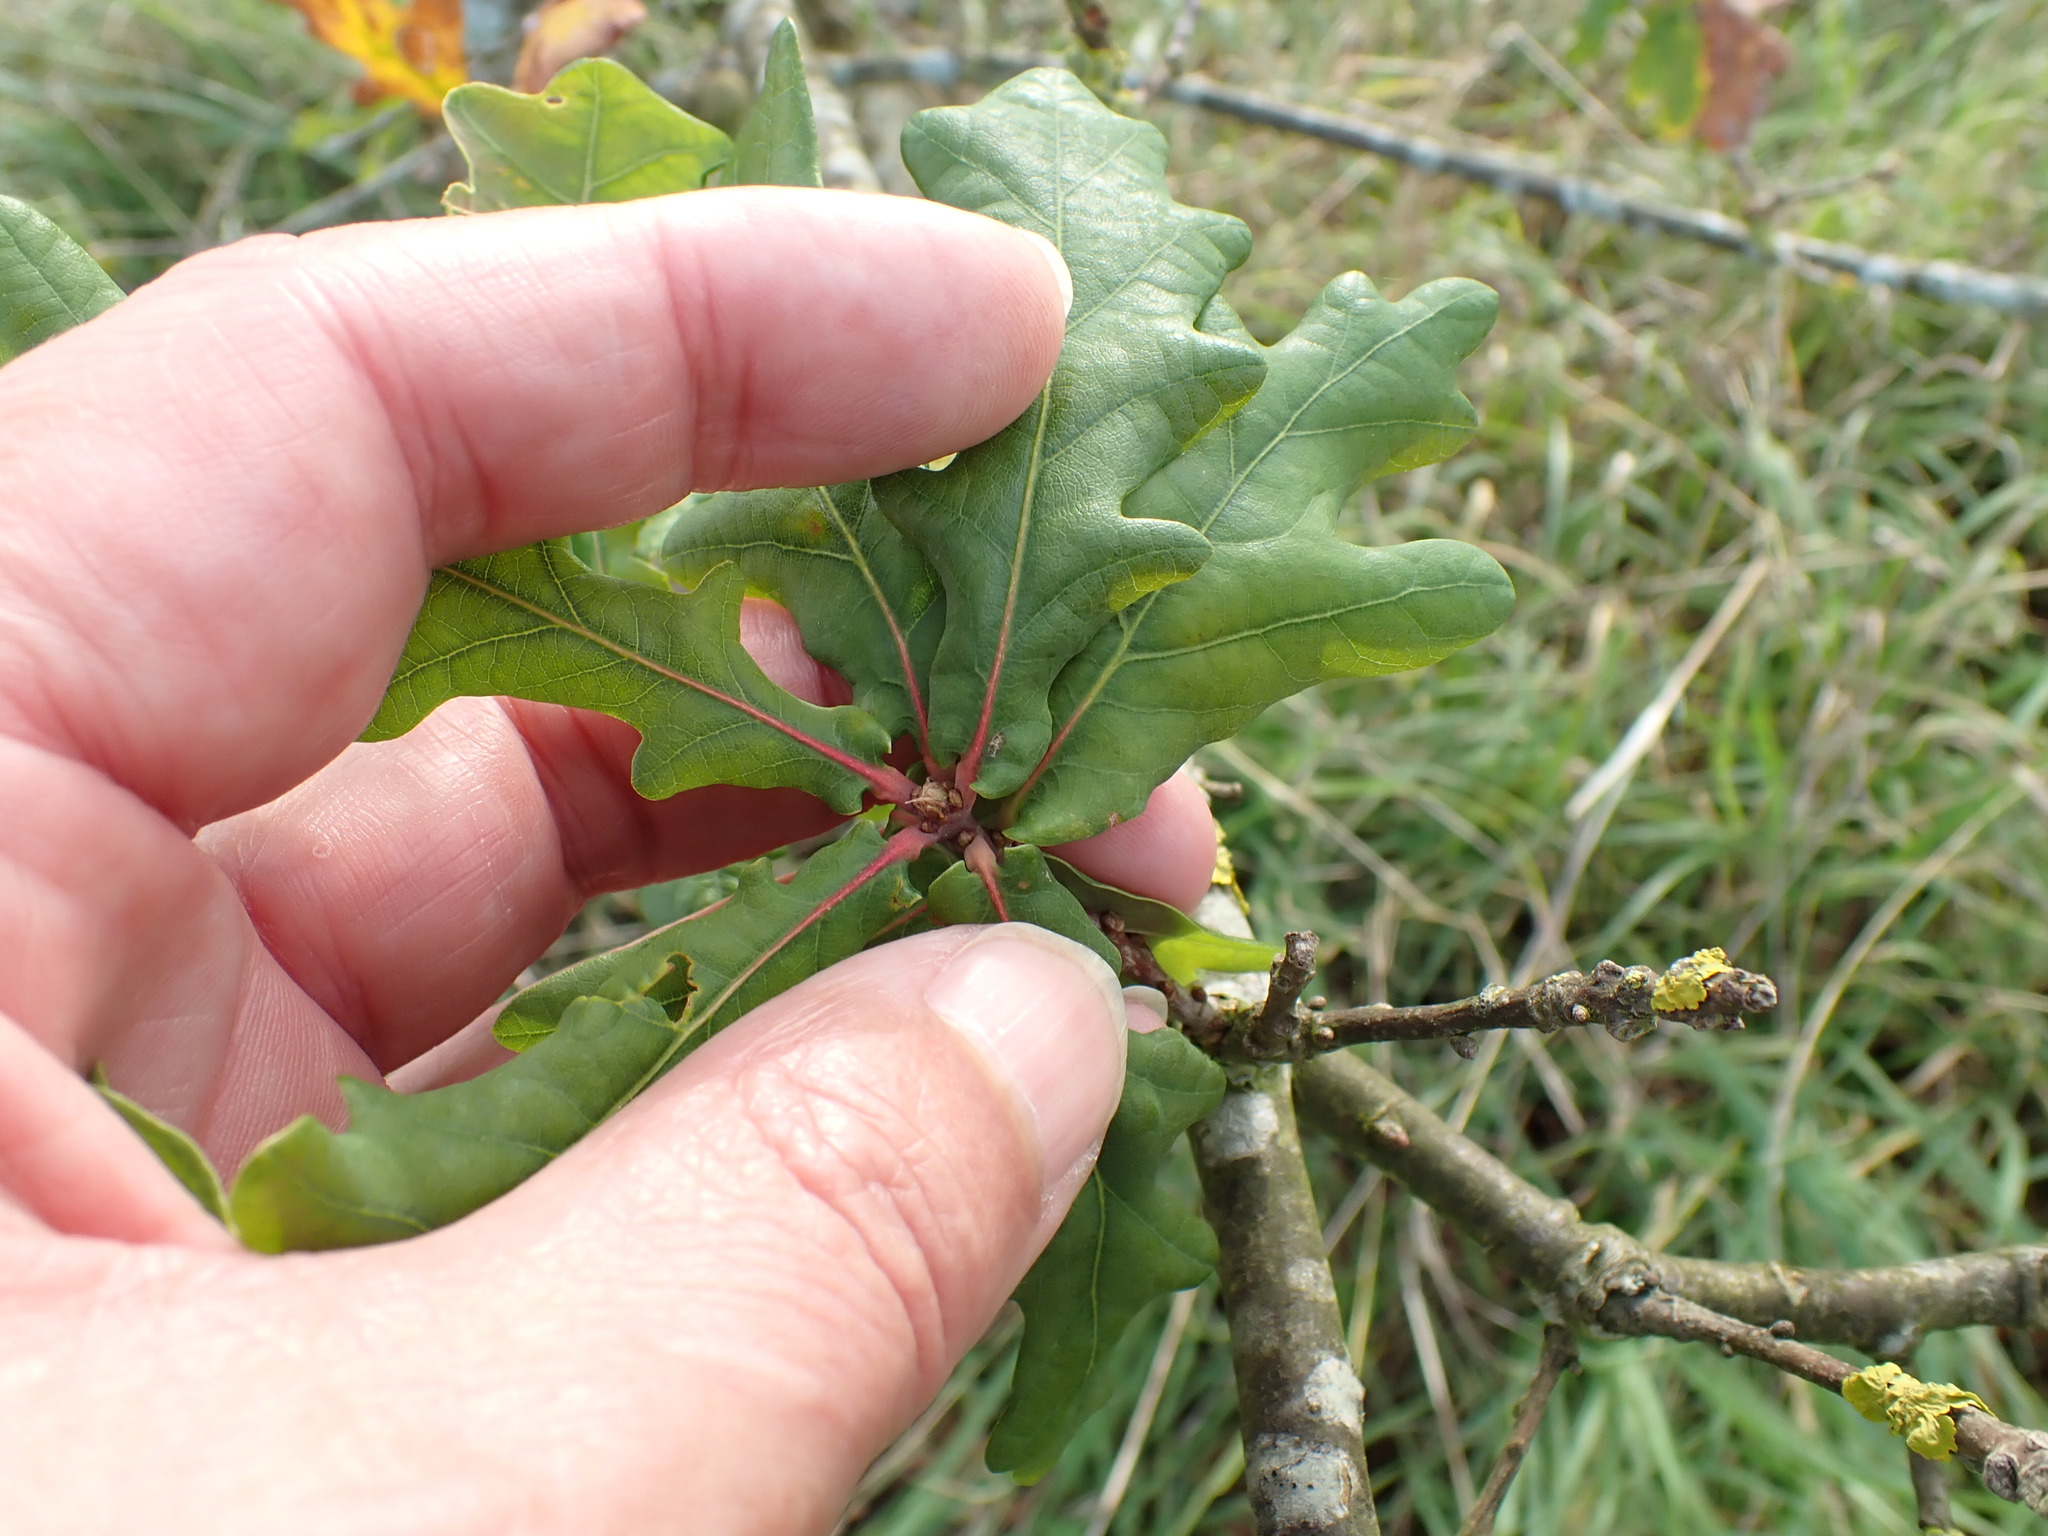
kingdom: Plantae
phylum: Tracheophyta
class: Magnoliopsida
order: Fagales
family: Fagaceae
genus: Quercus
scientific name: Quercus robur
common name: Pedunculate oak
